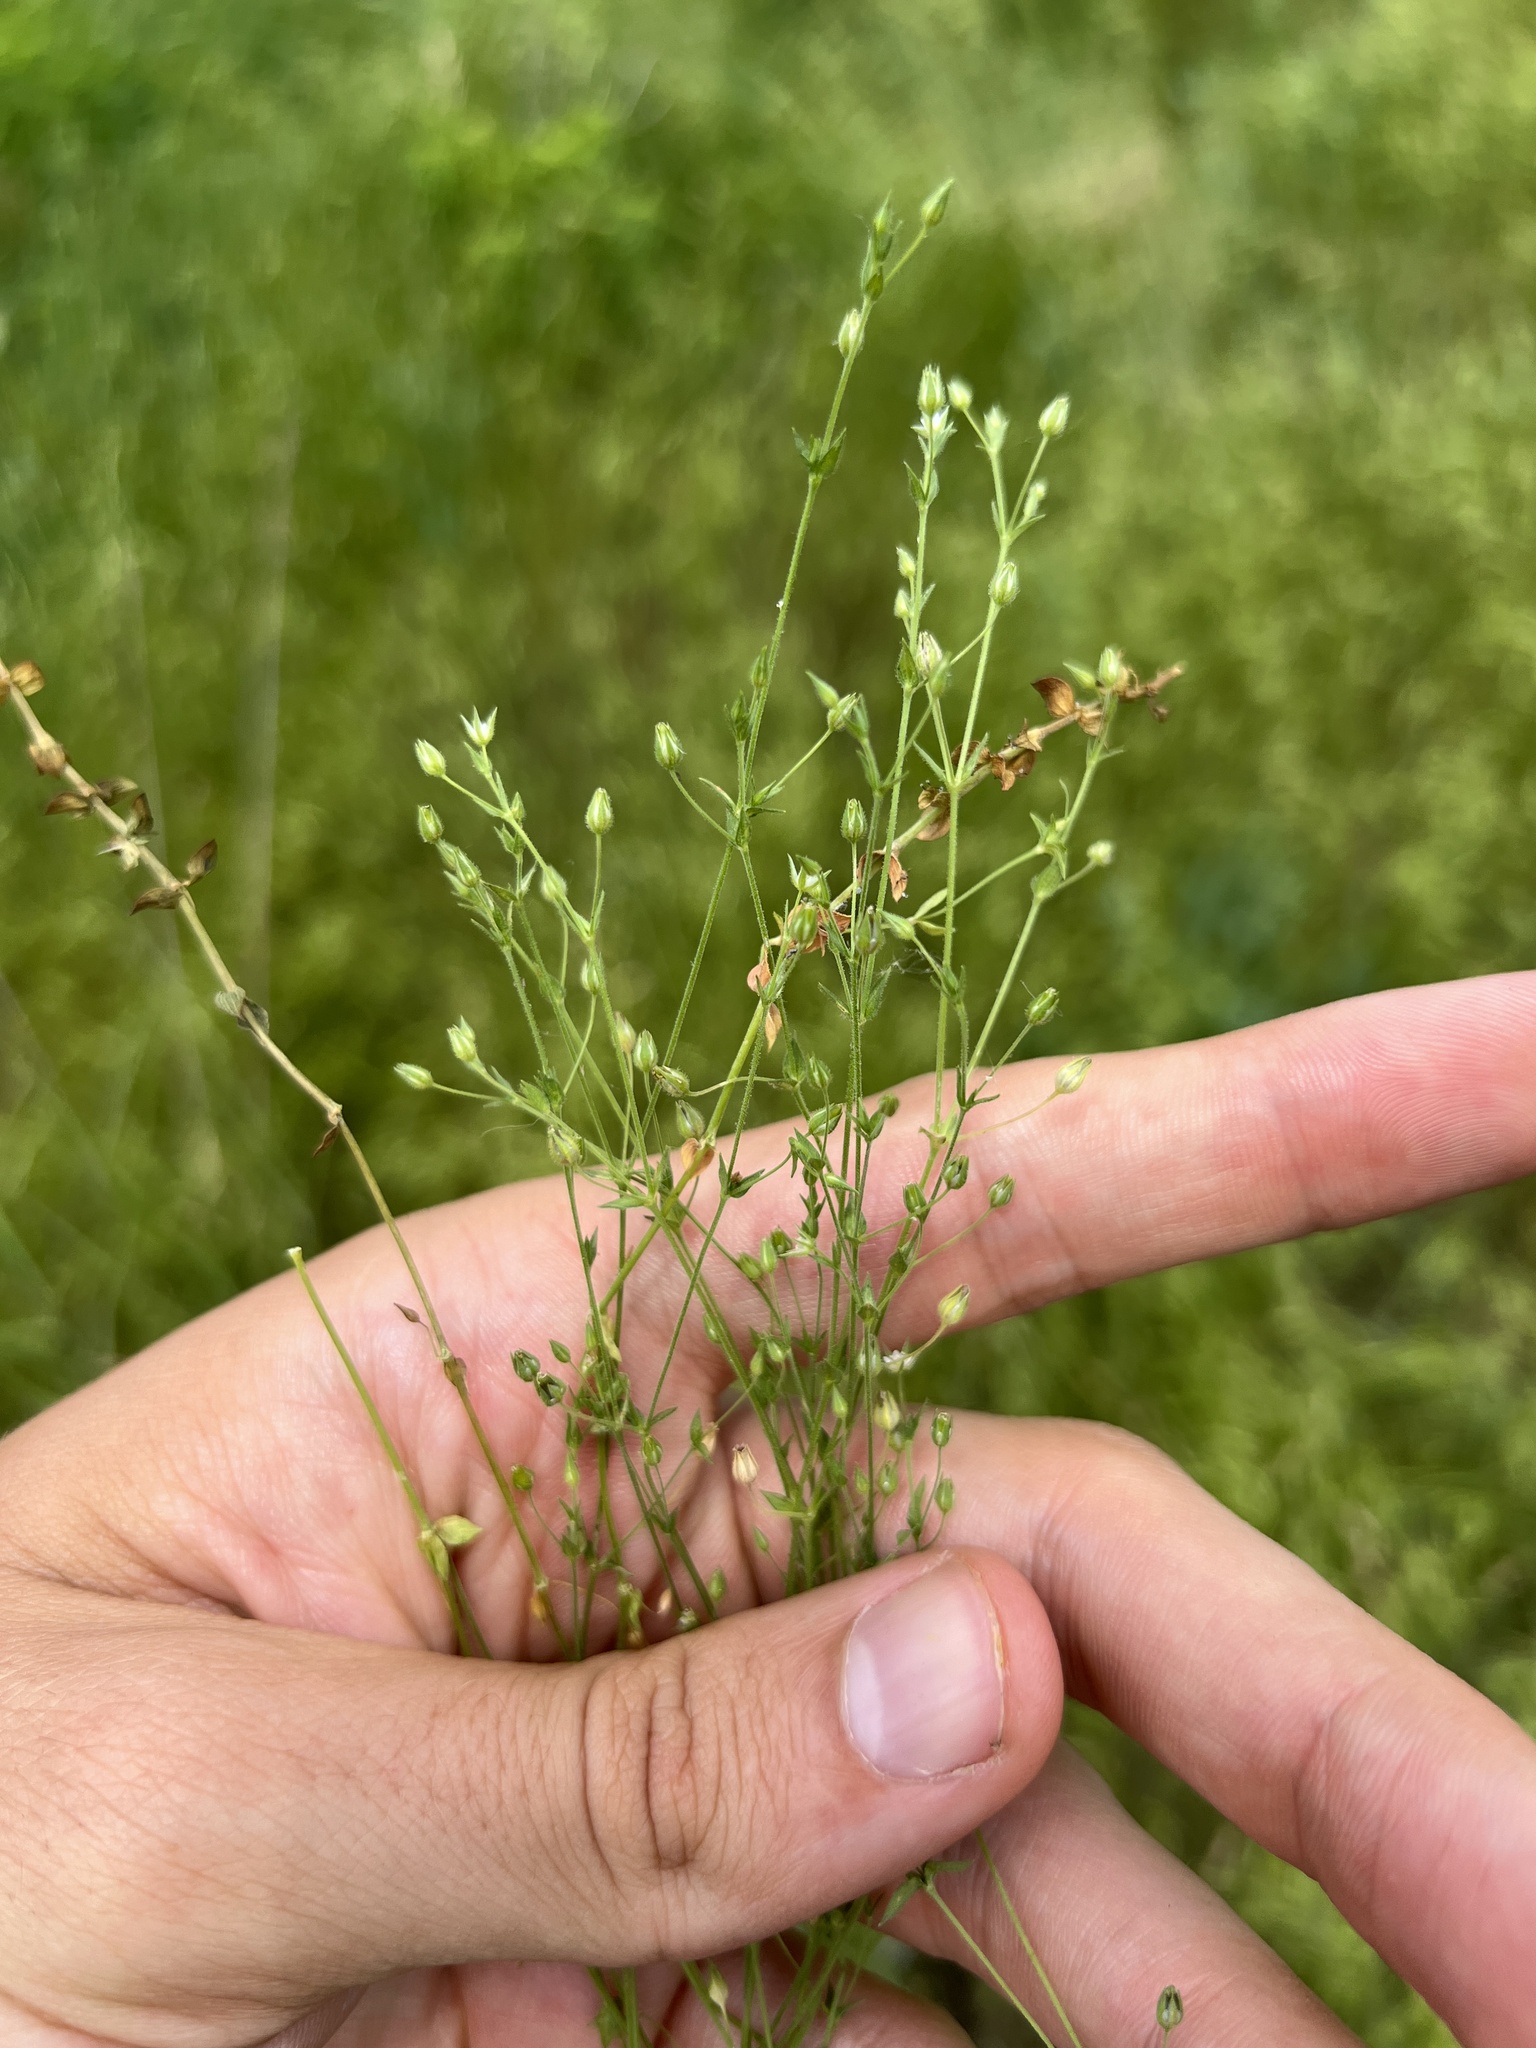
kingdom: Plantae
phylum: Tracheophyta
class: Magnoliopsida
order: Caryophyllales
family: Caryophyllaceae
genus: Arenaria
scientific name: Arenaria serpyllifolia
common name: Thyme-leaved sandwort
